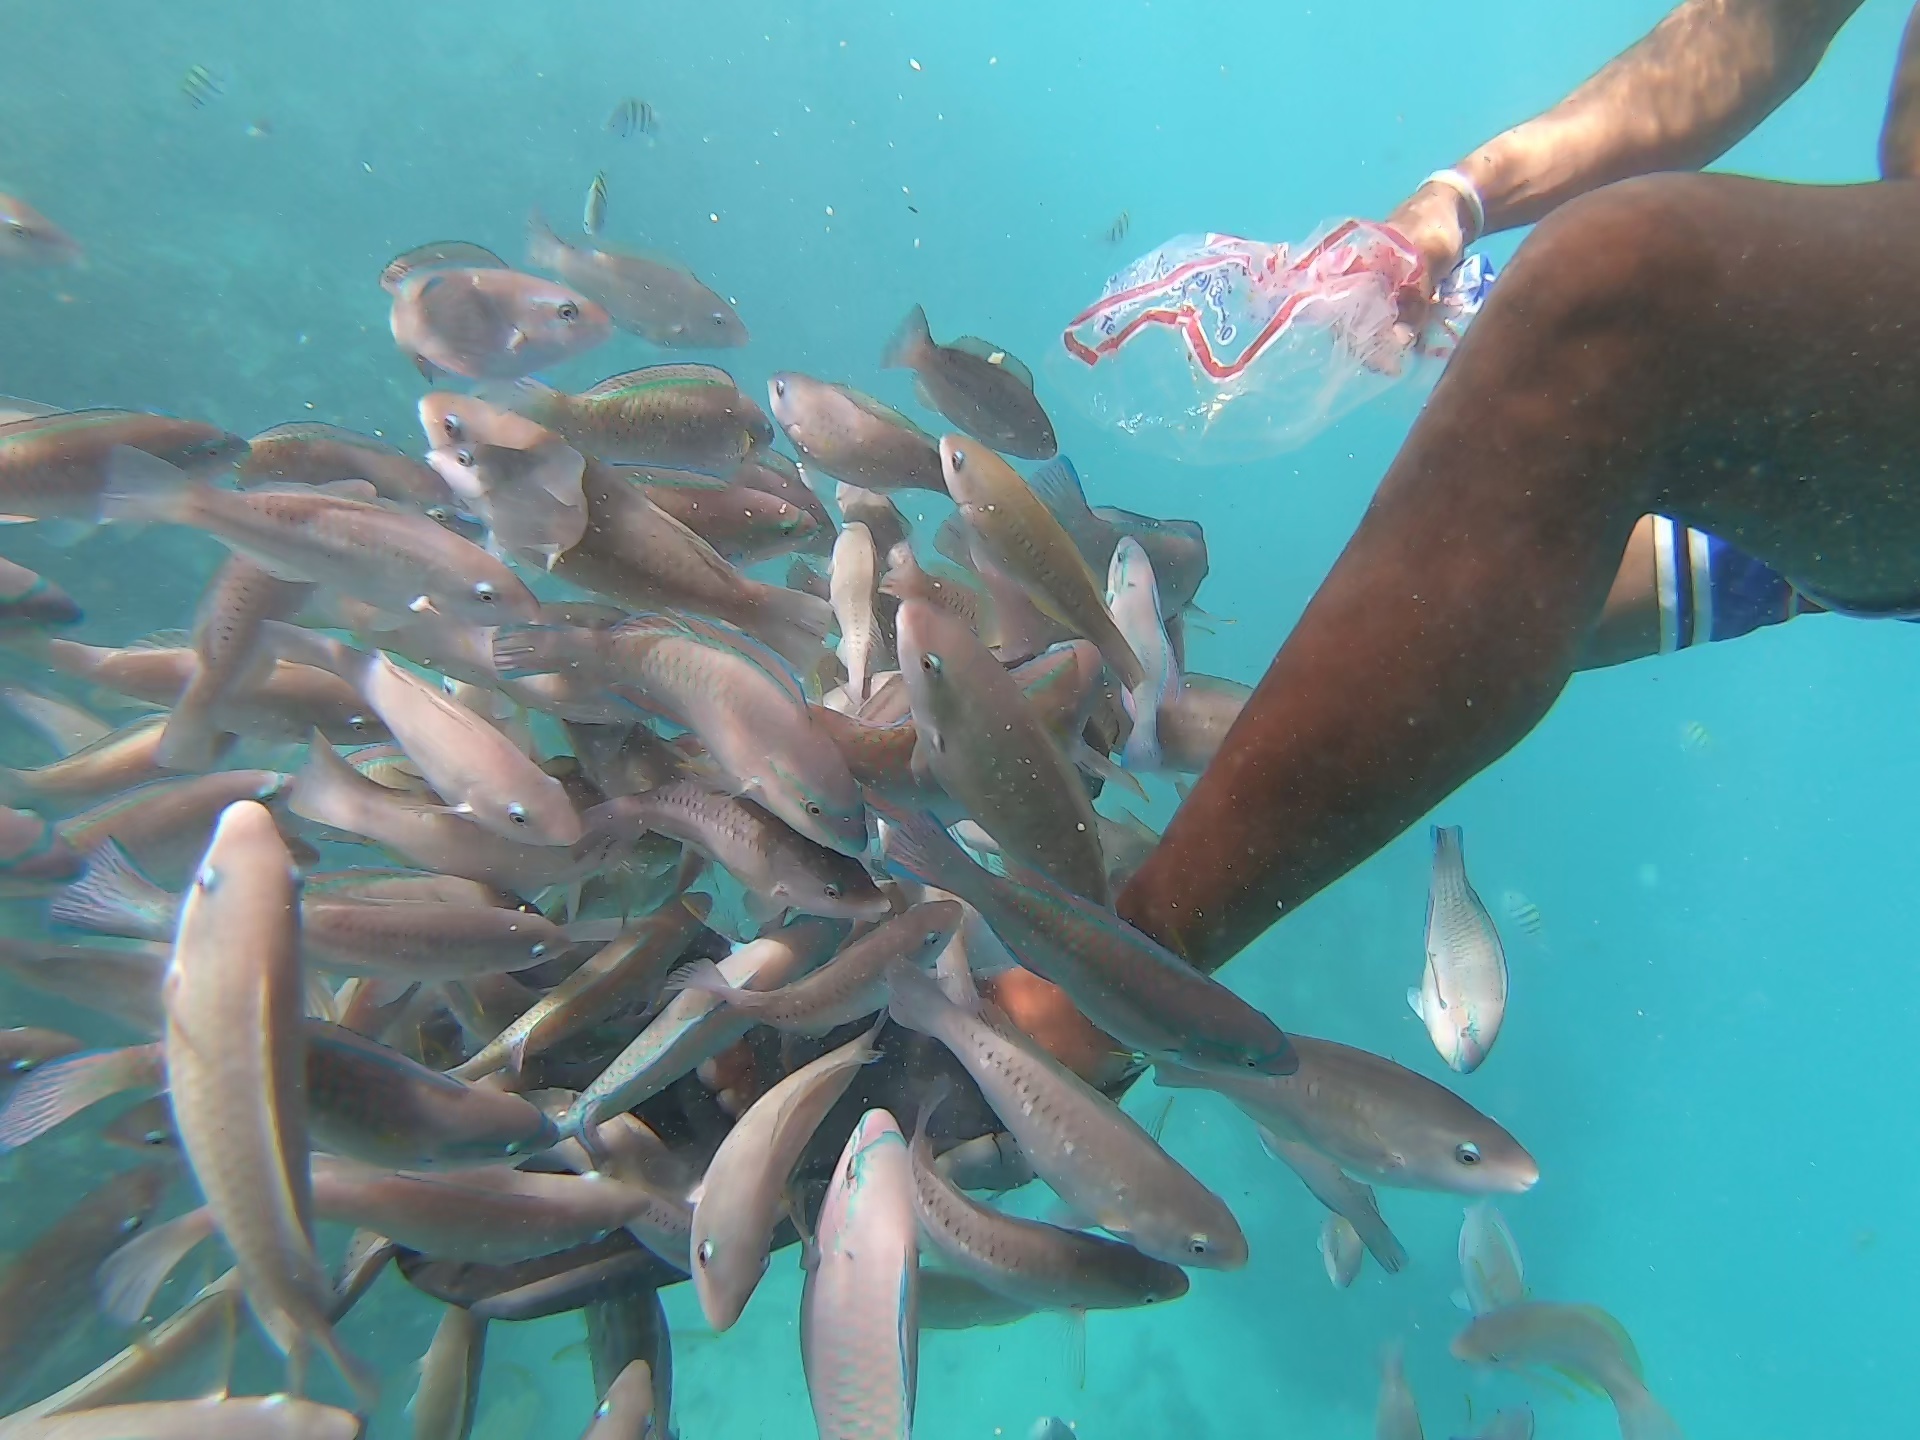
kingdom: Animalia
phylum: Chordata
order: Perciformes
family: Scaridae
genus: Scarus
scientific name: Scarus iseri
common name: Striped parrotfish
